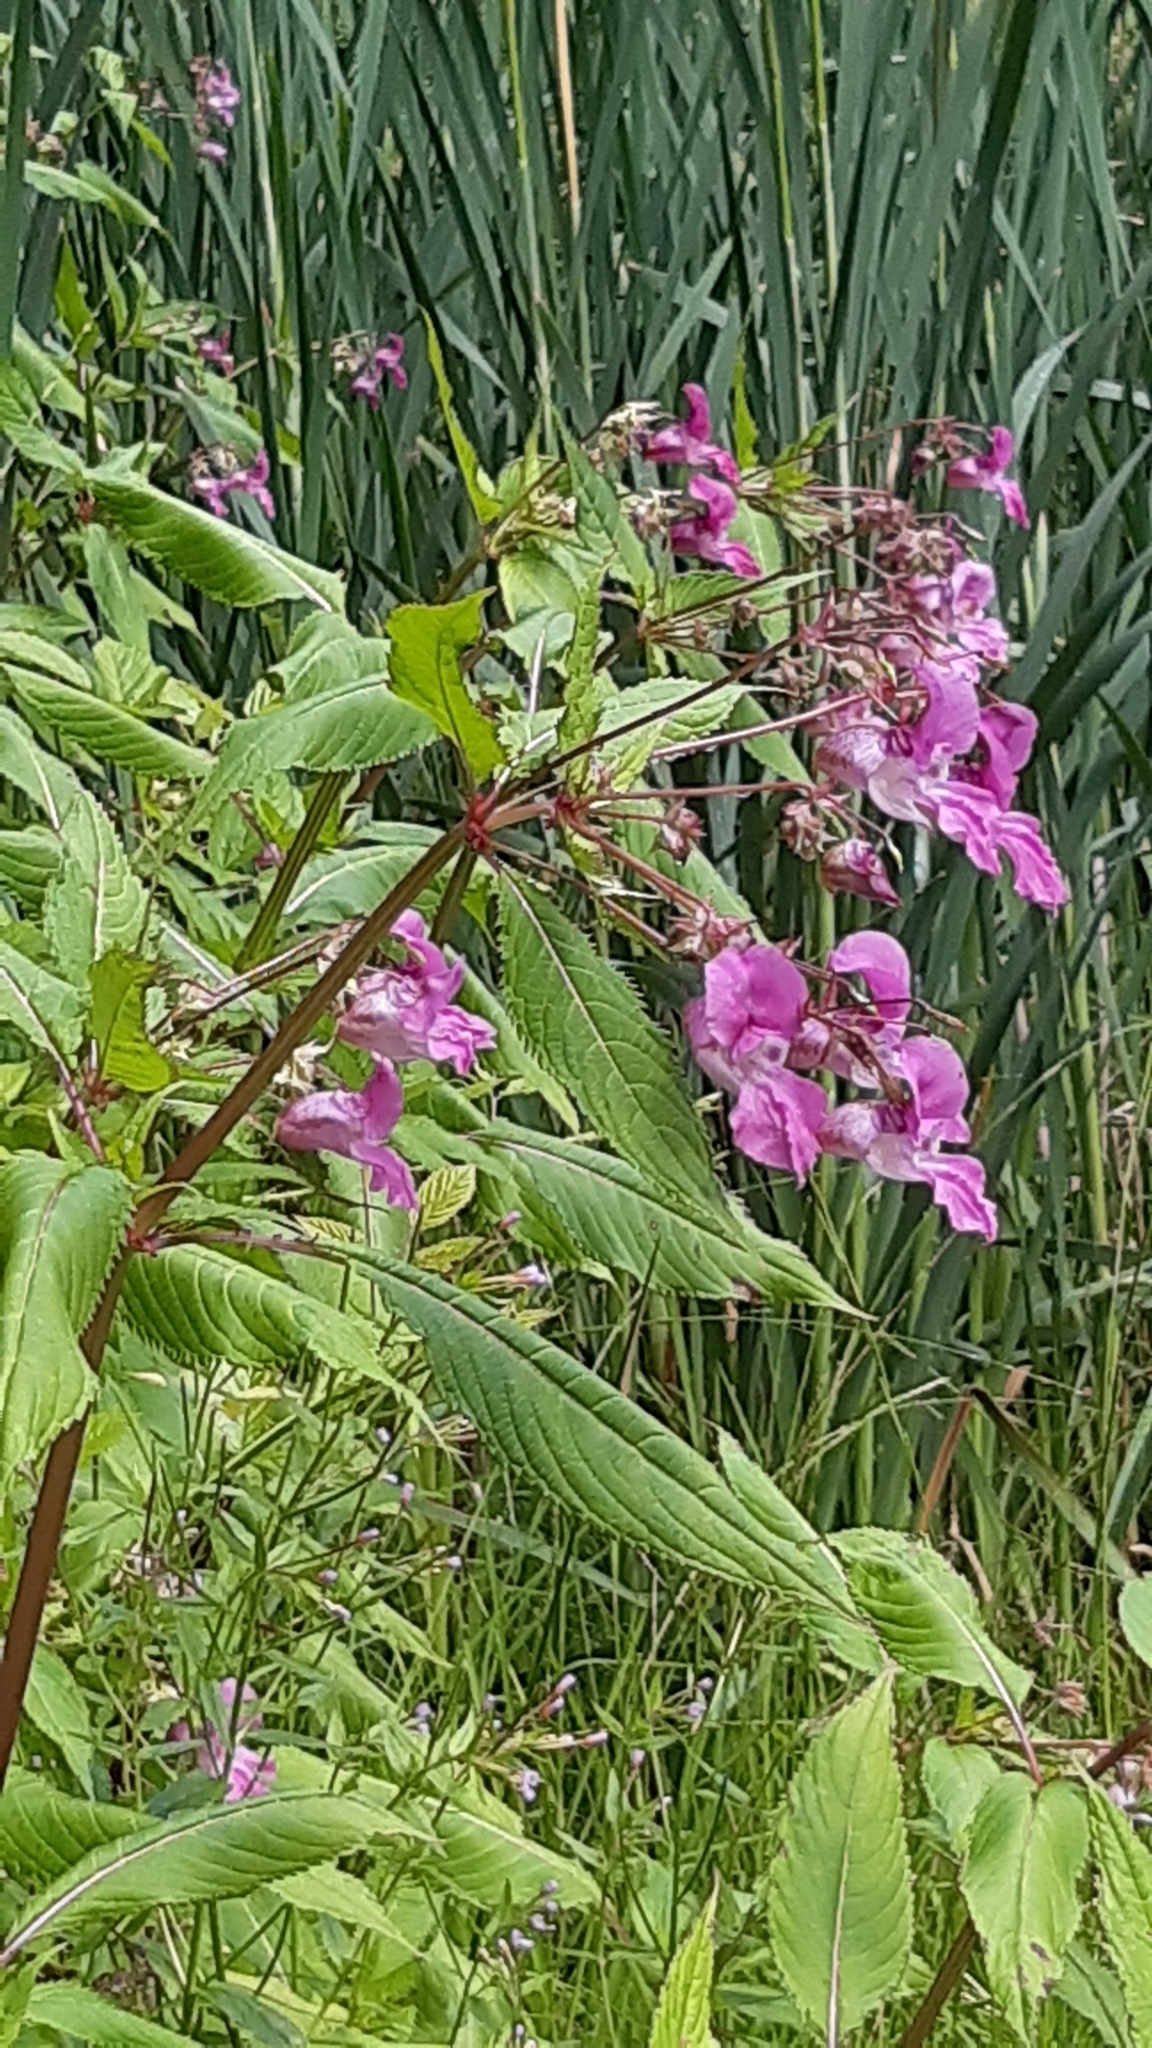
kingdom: Plantae
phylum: Tracheophyta
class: Magnoliopsida
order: Ericales
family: Balsaminaceae
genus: Impatiens
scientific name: Impatiens glandulifera
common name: Himalayan balsam
